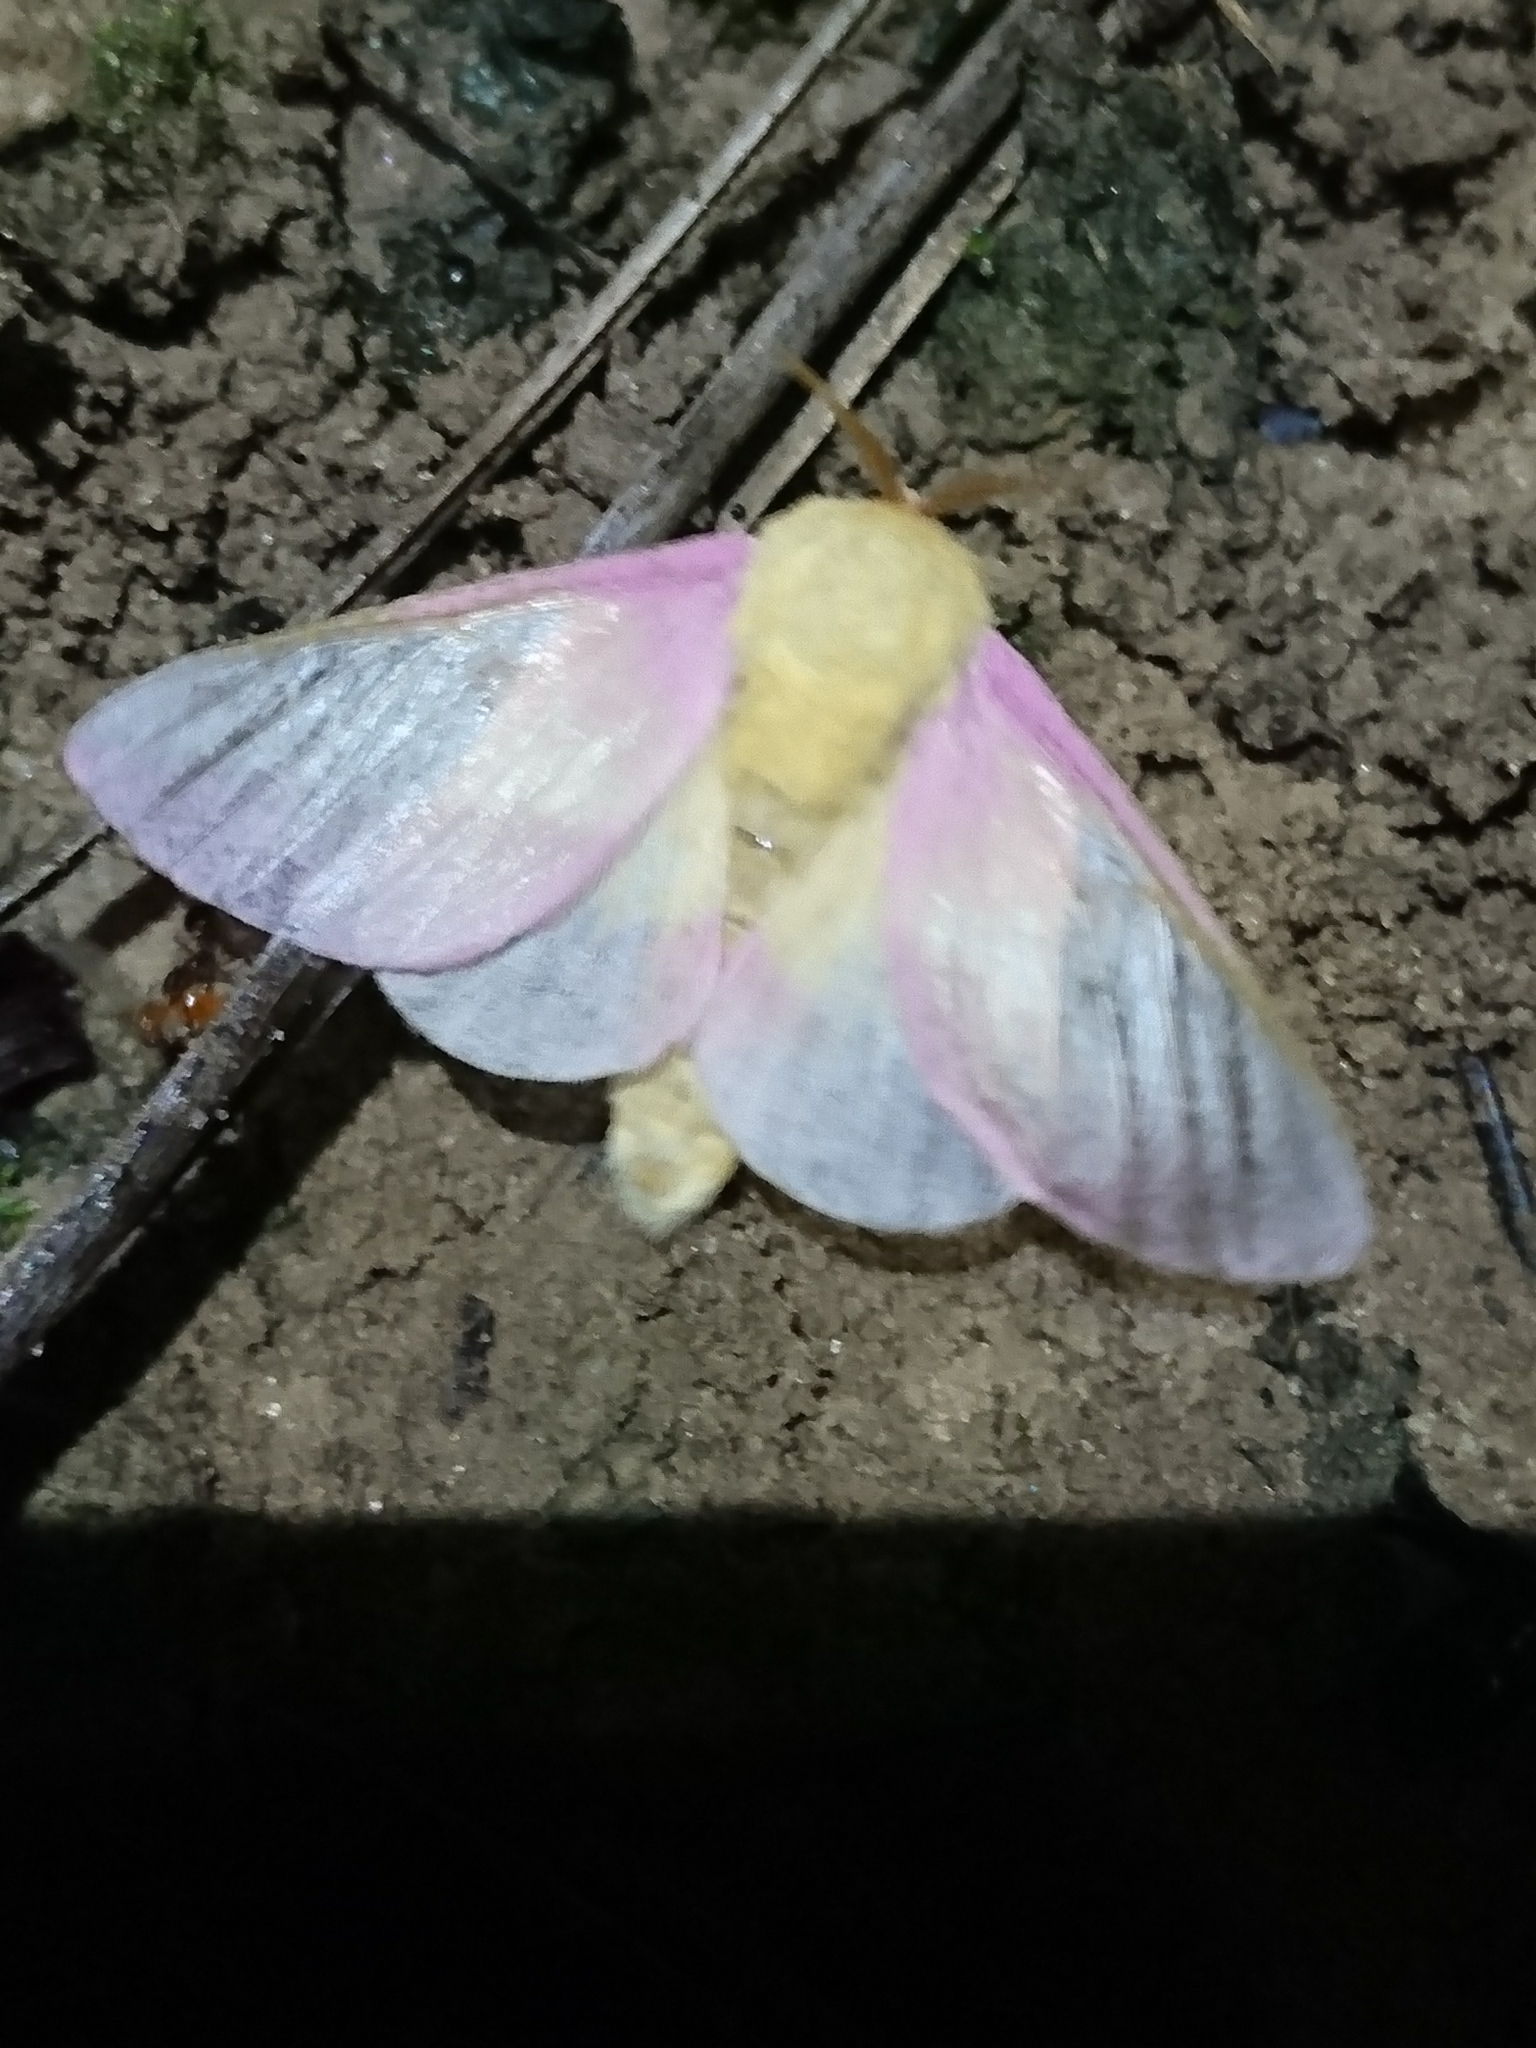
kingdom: Animalia
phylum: Arthropoda
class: Insecta
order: Lepidoptera
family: Saturniidae
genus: Dryocampa
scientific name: Dryocampa rubicunda
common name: Rosy maple moth
